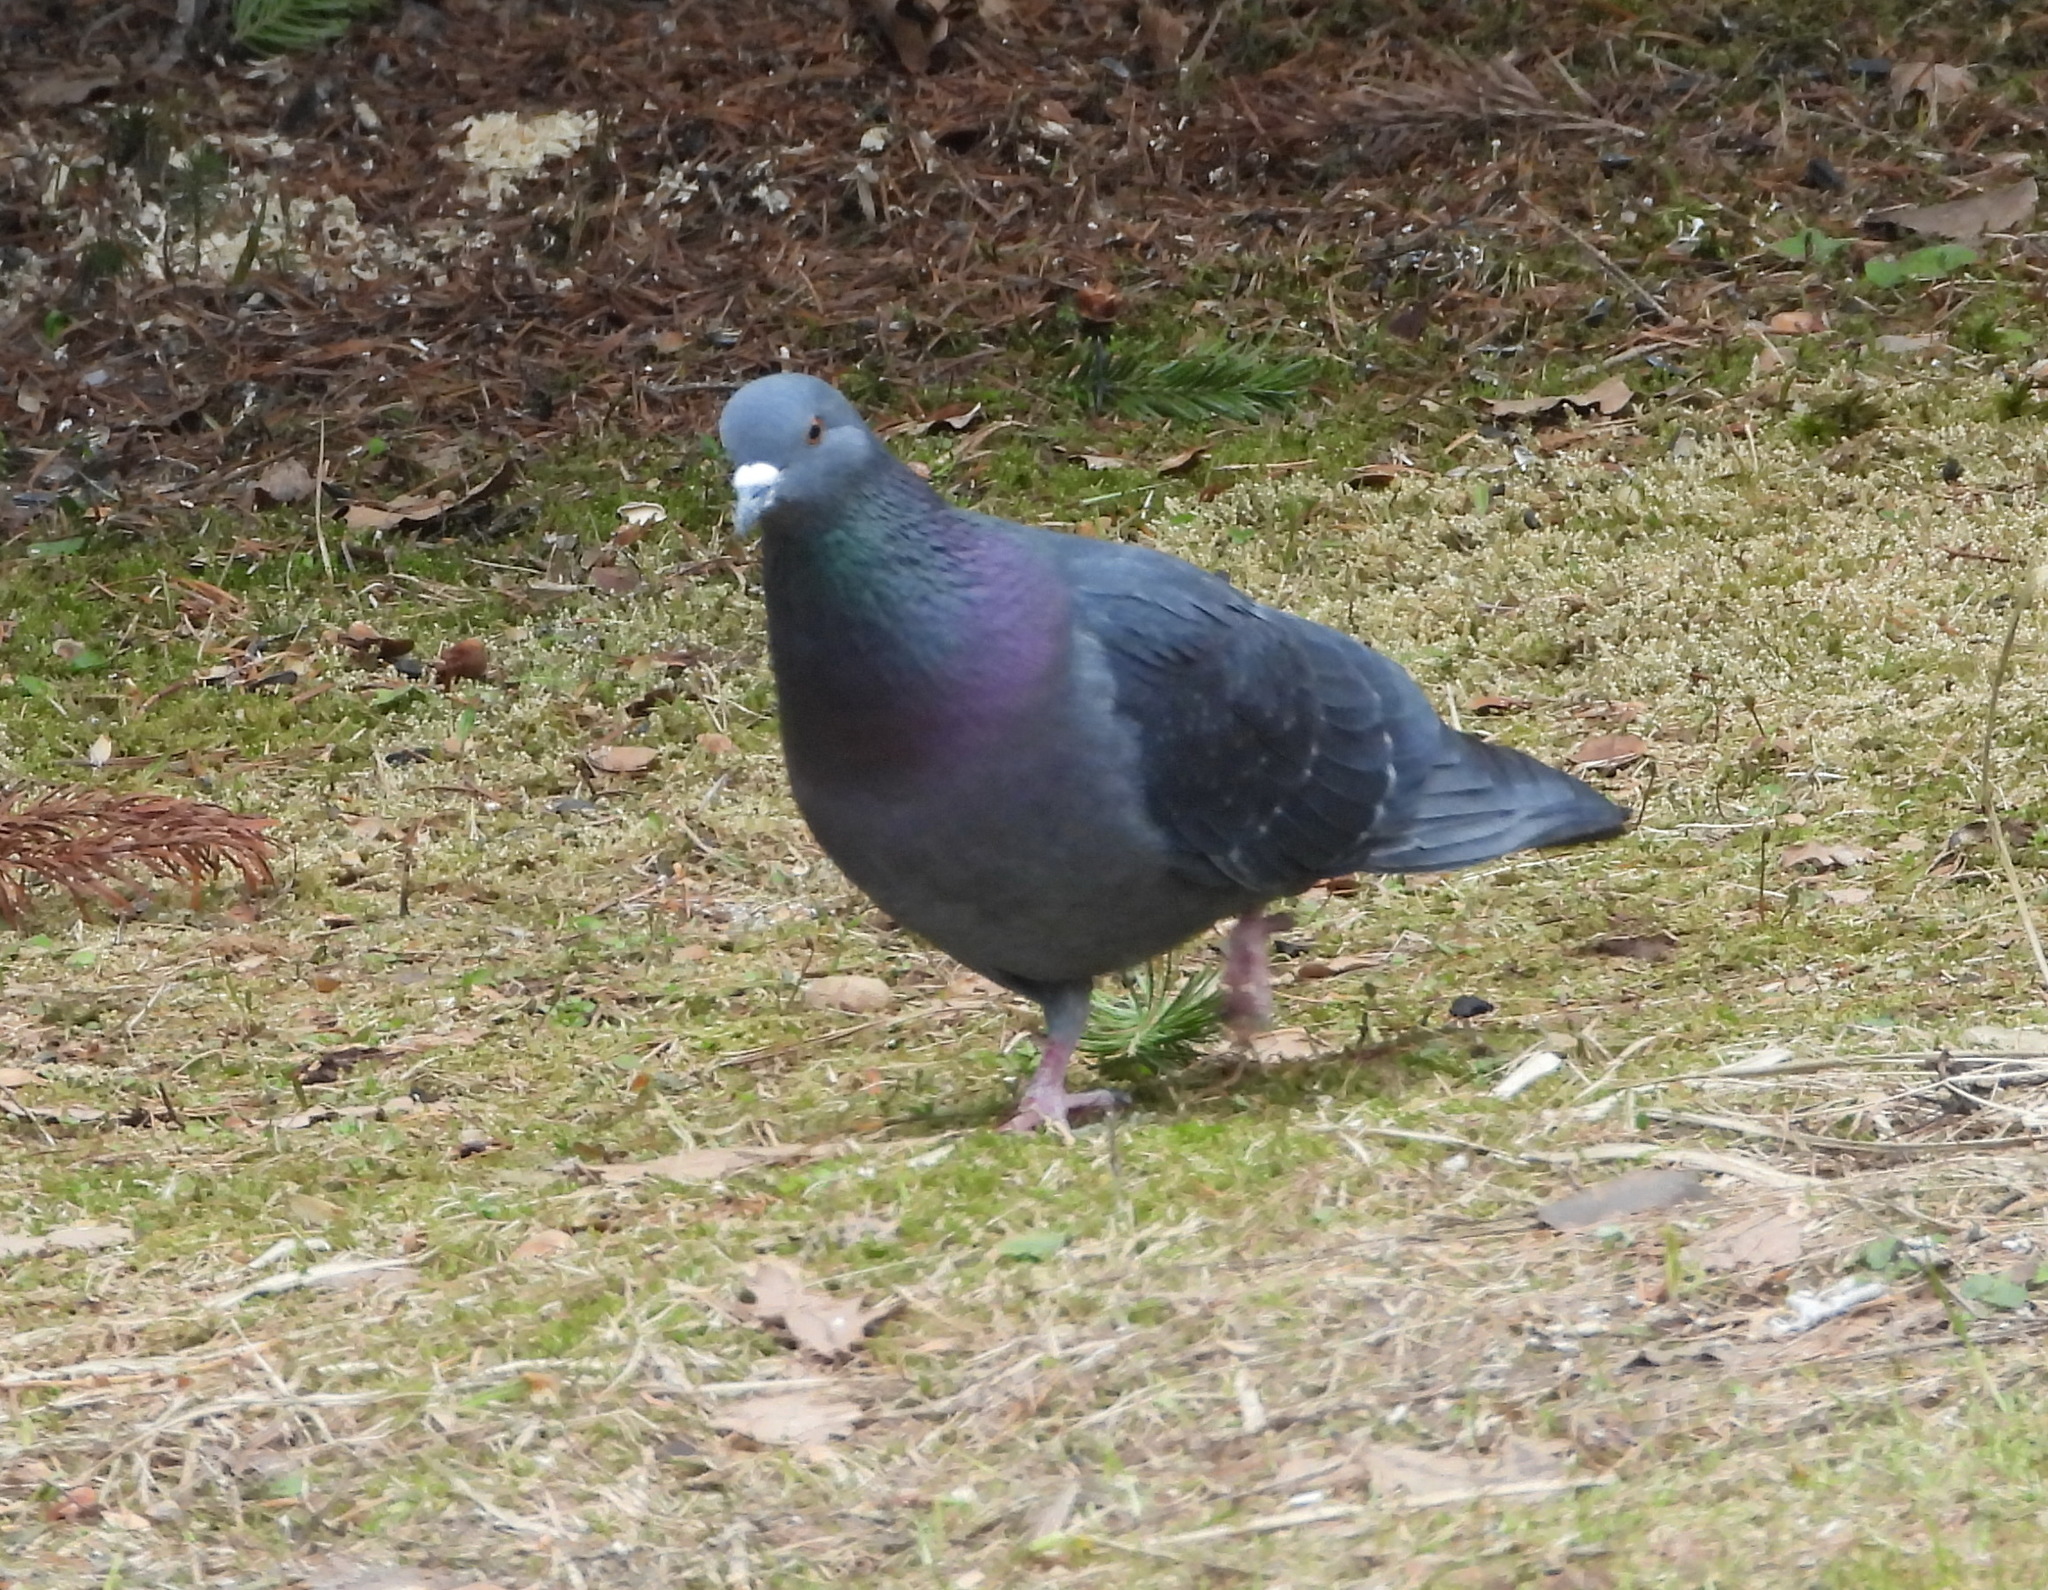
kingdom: Animalia
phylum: Chordata
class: Aves
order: Columbiformes
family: Columbidae
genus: Columba
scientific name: Columba livia
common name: Rock pigeon
